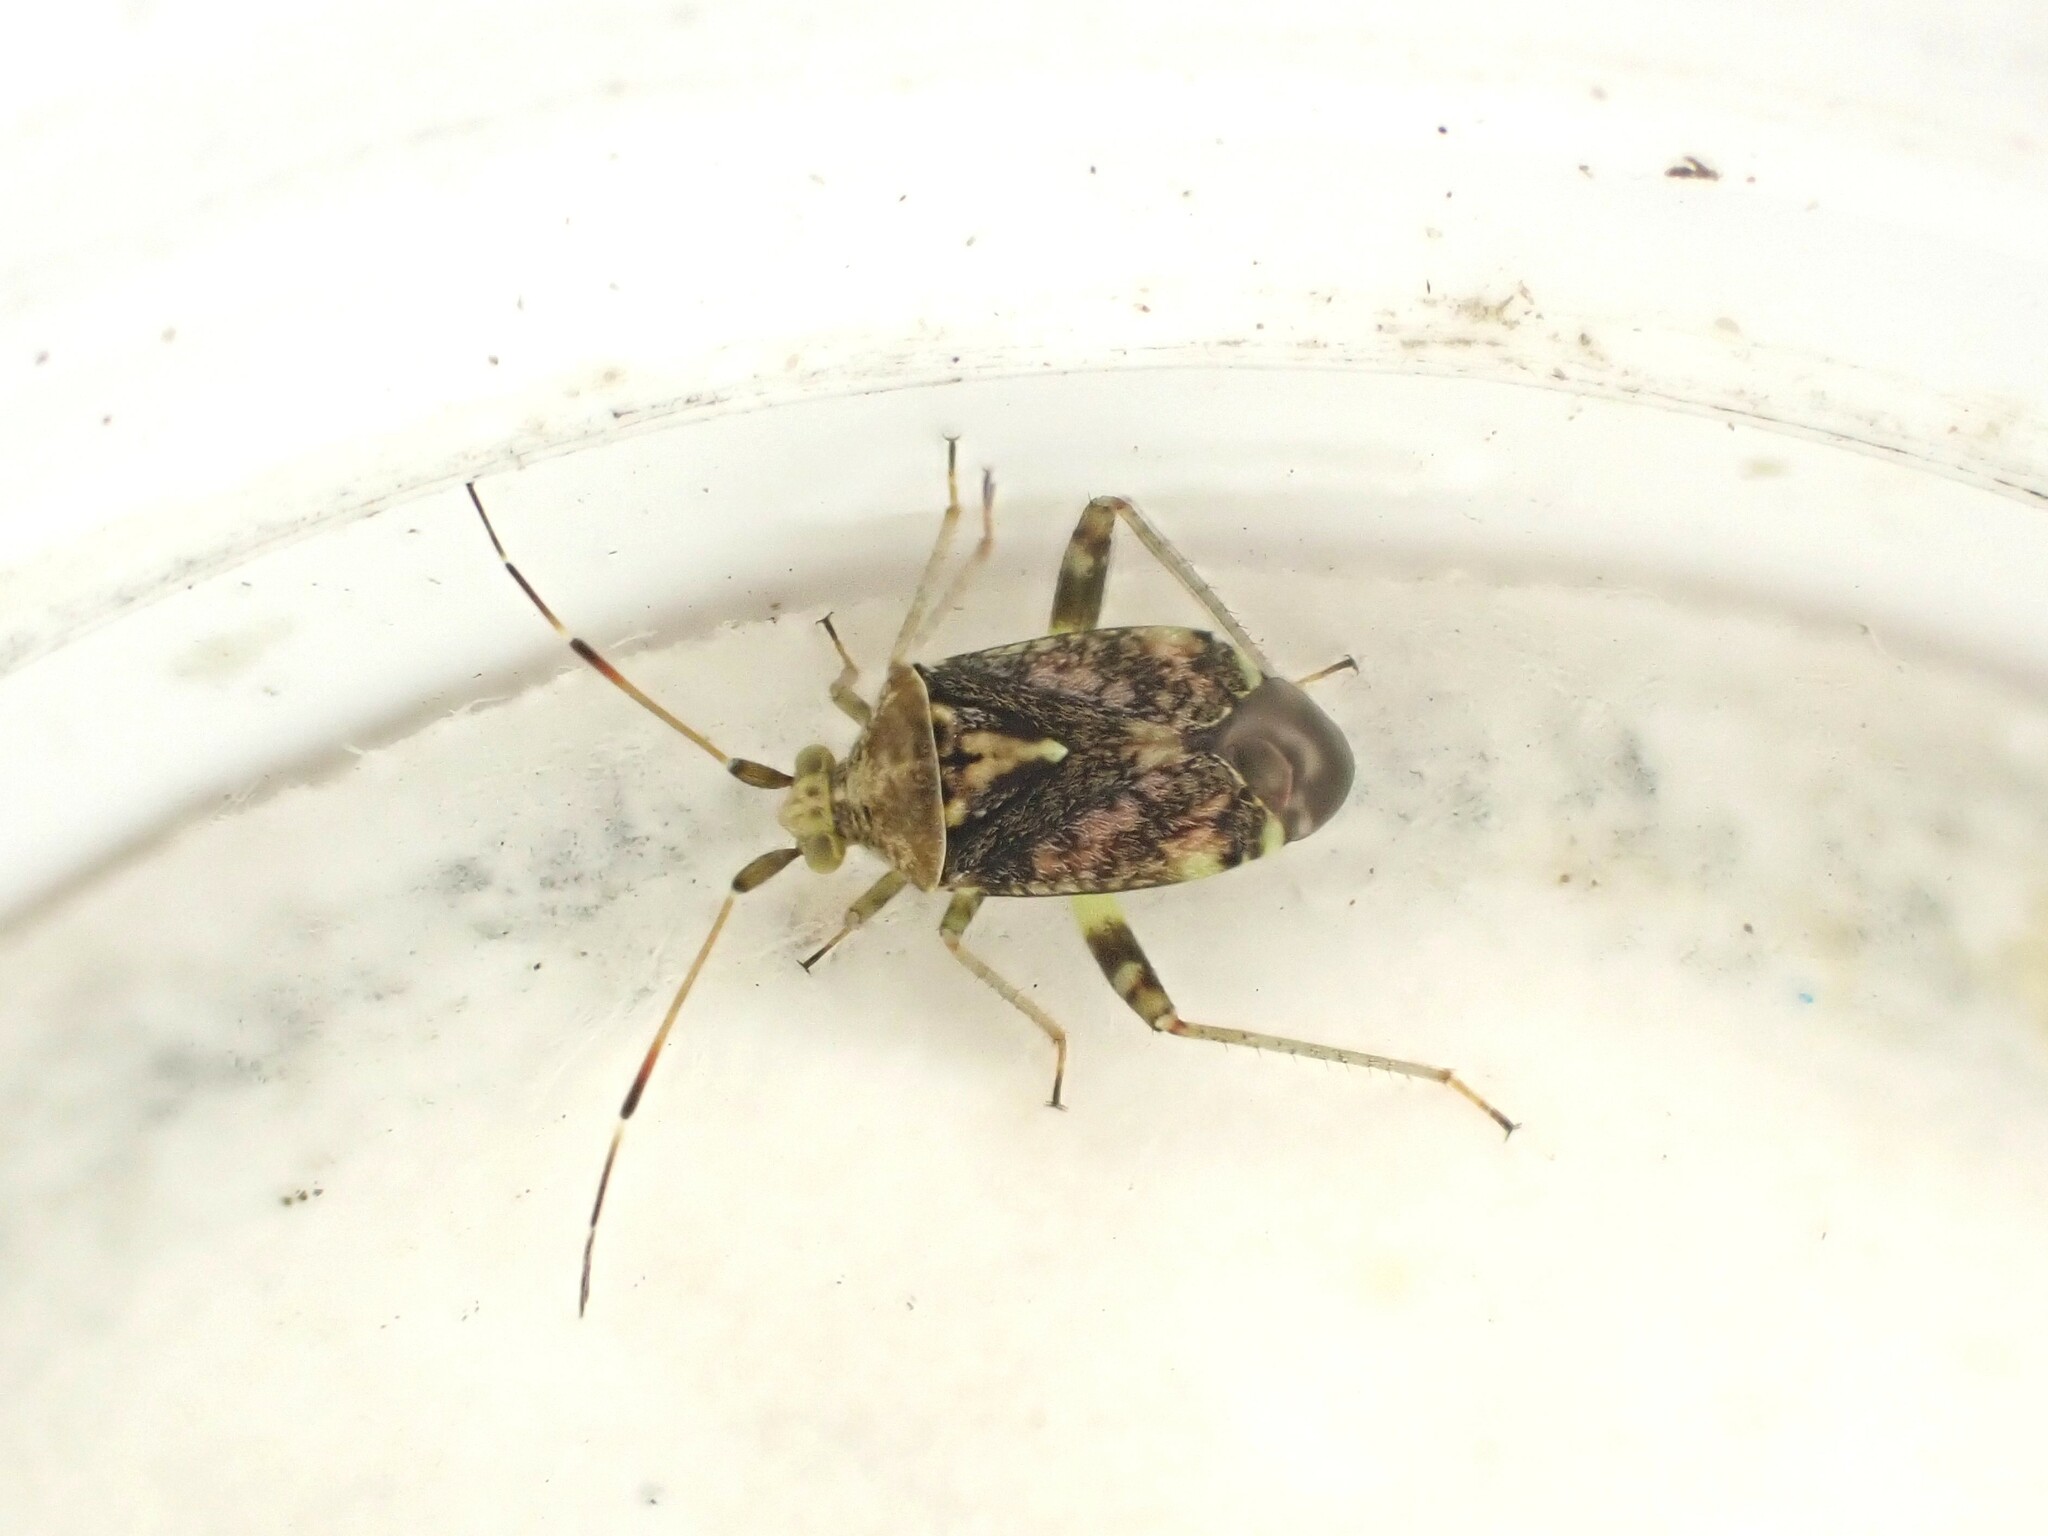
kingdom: Animalia
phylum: Arthropoda
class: Insecta
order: Hemiptera
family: Miridae
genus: Sidnia
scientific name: Sidnia kinbergi
